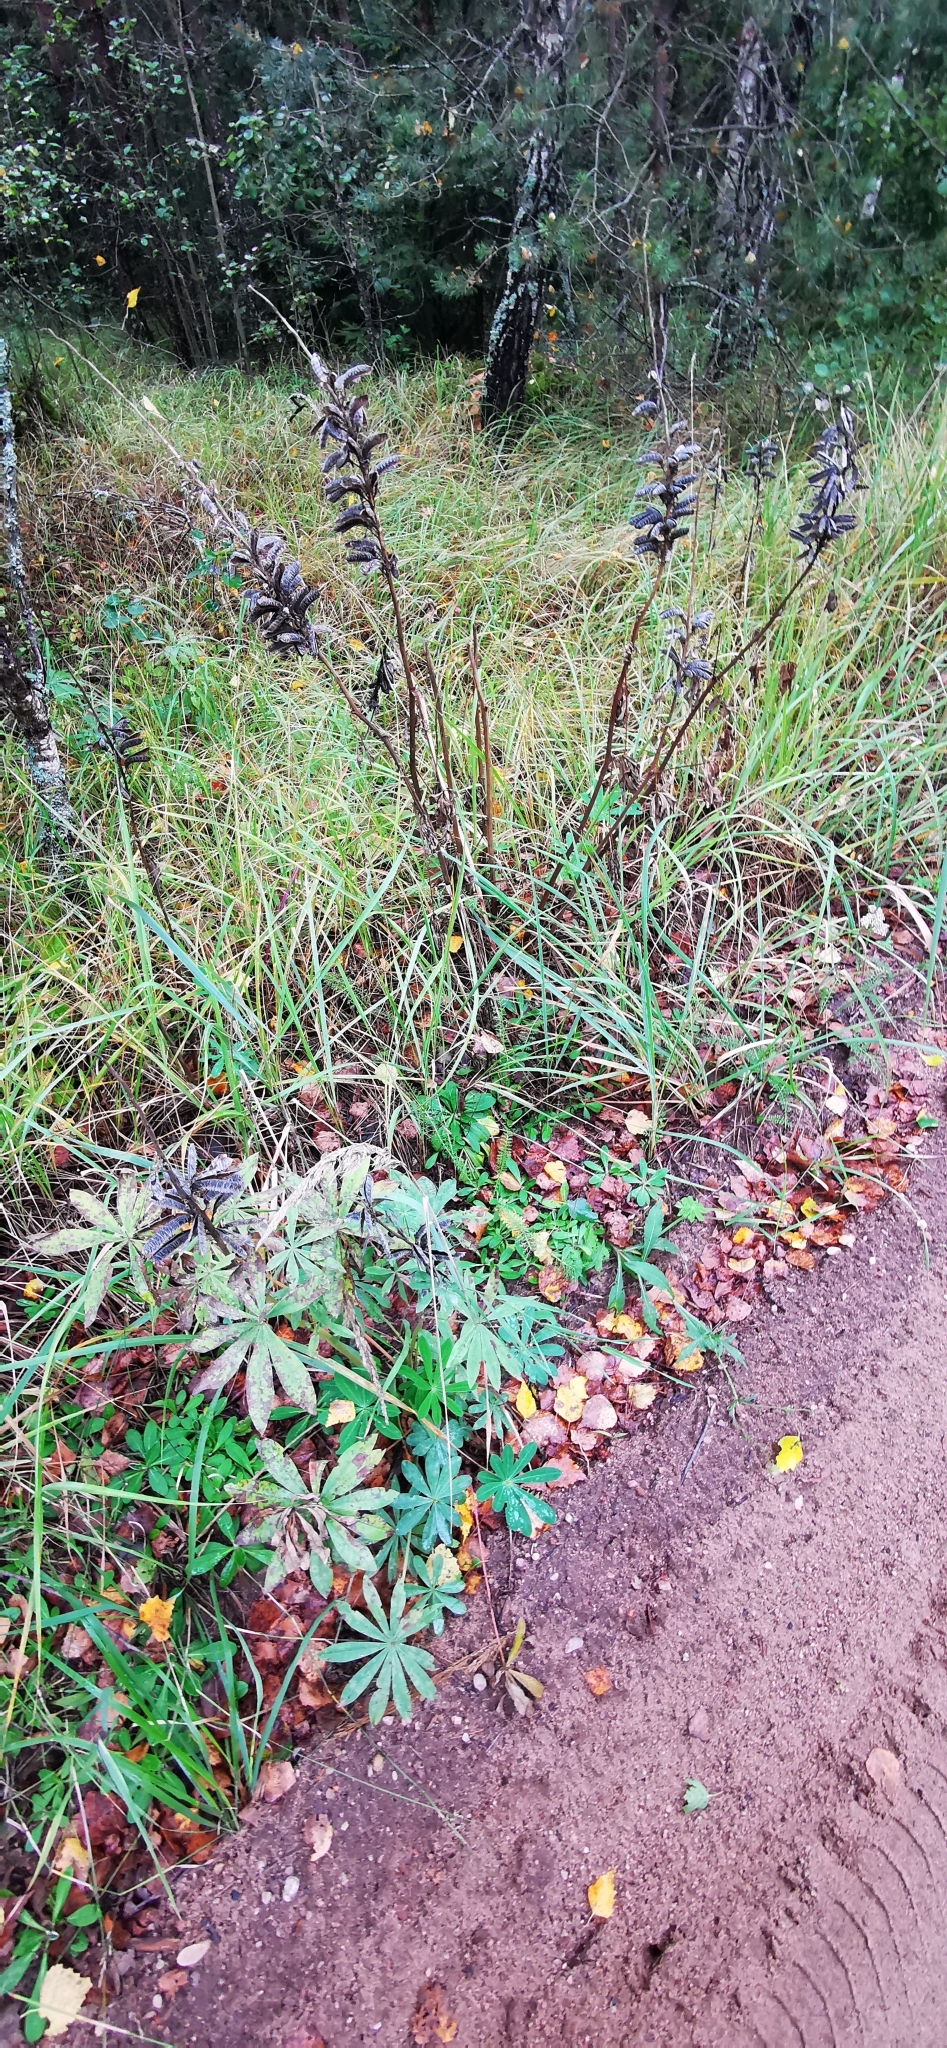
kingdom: Plantae
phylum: Tracheophyta
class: Magnoliopsida
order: Fabales
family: Fabaceae
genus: Lupinus
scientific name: Lupinus polyphyllus
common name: Garden lupin
